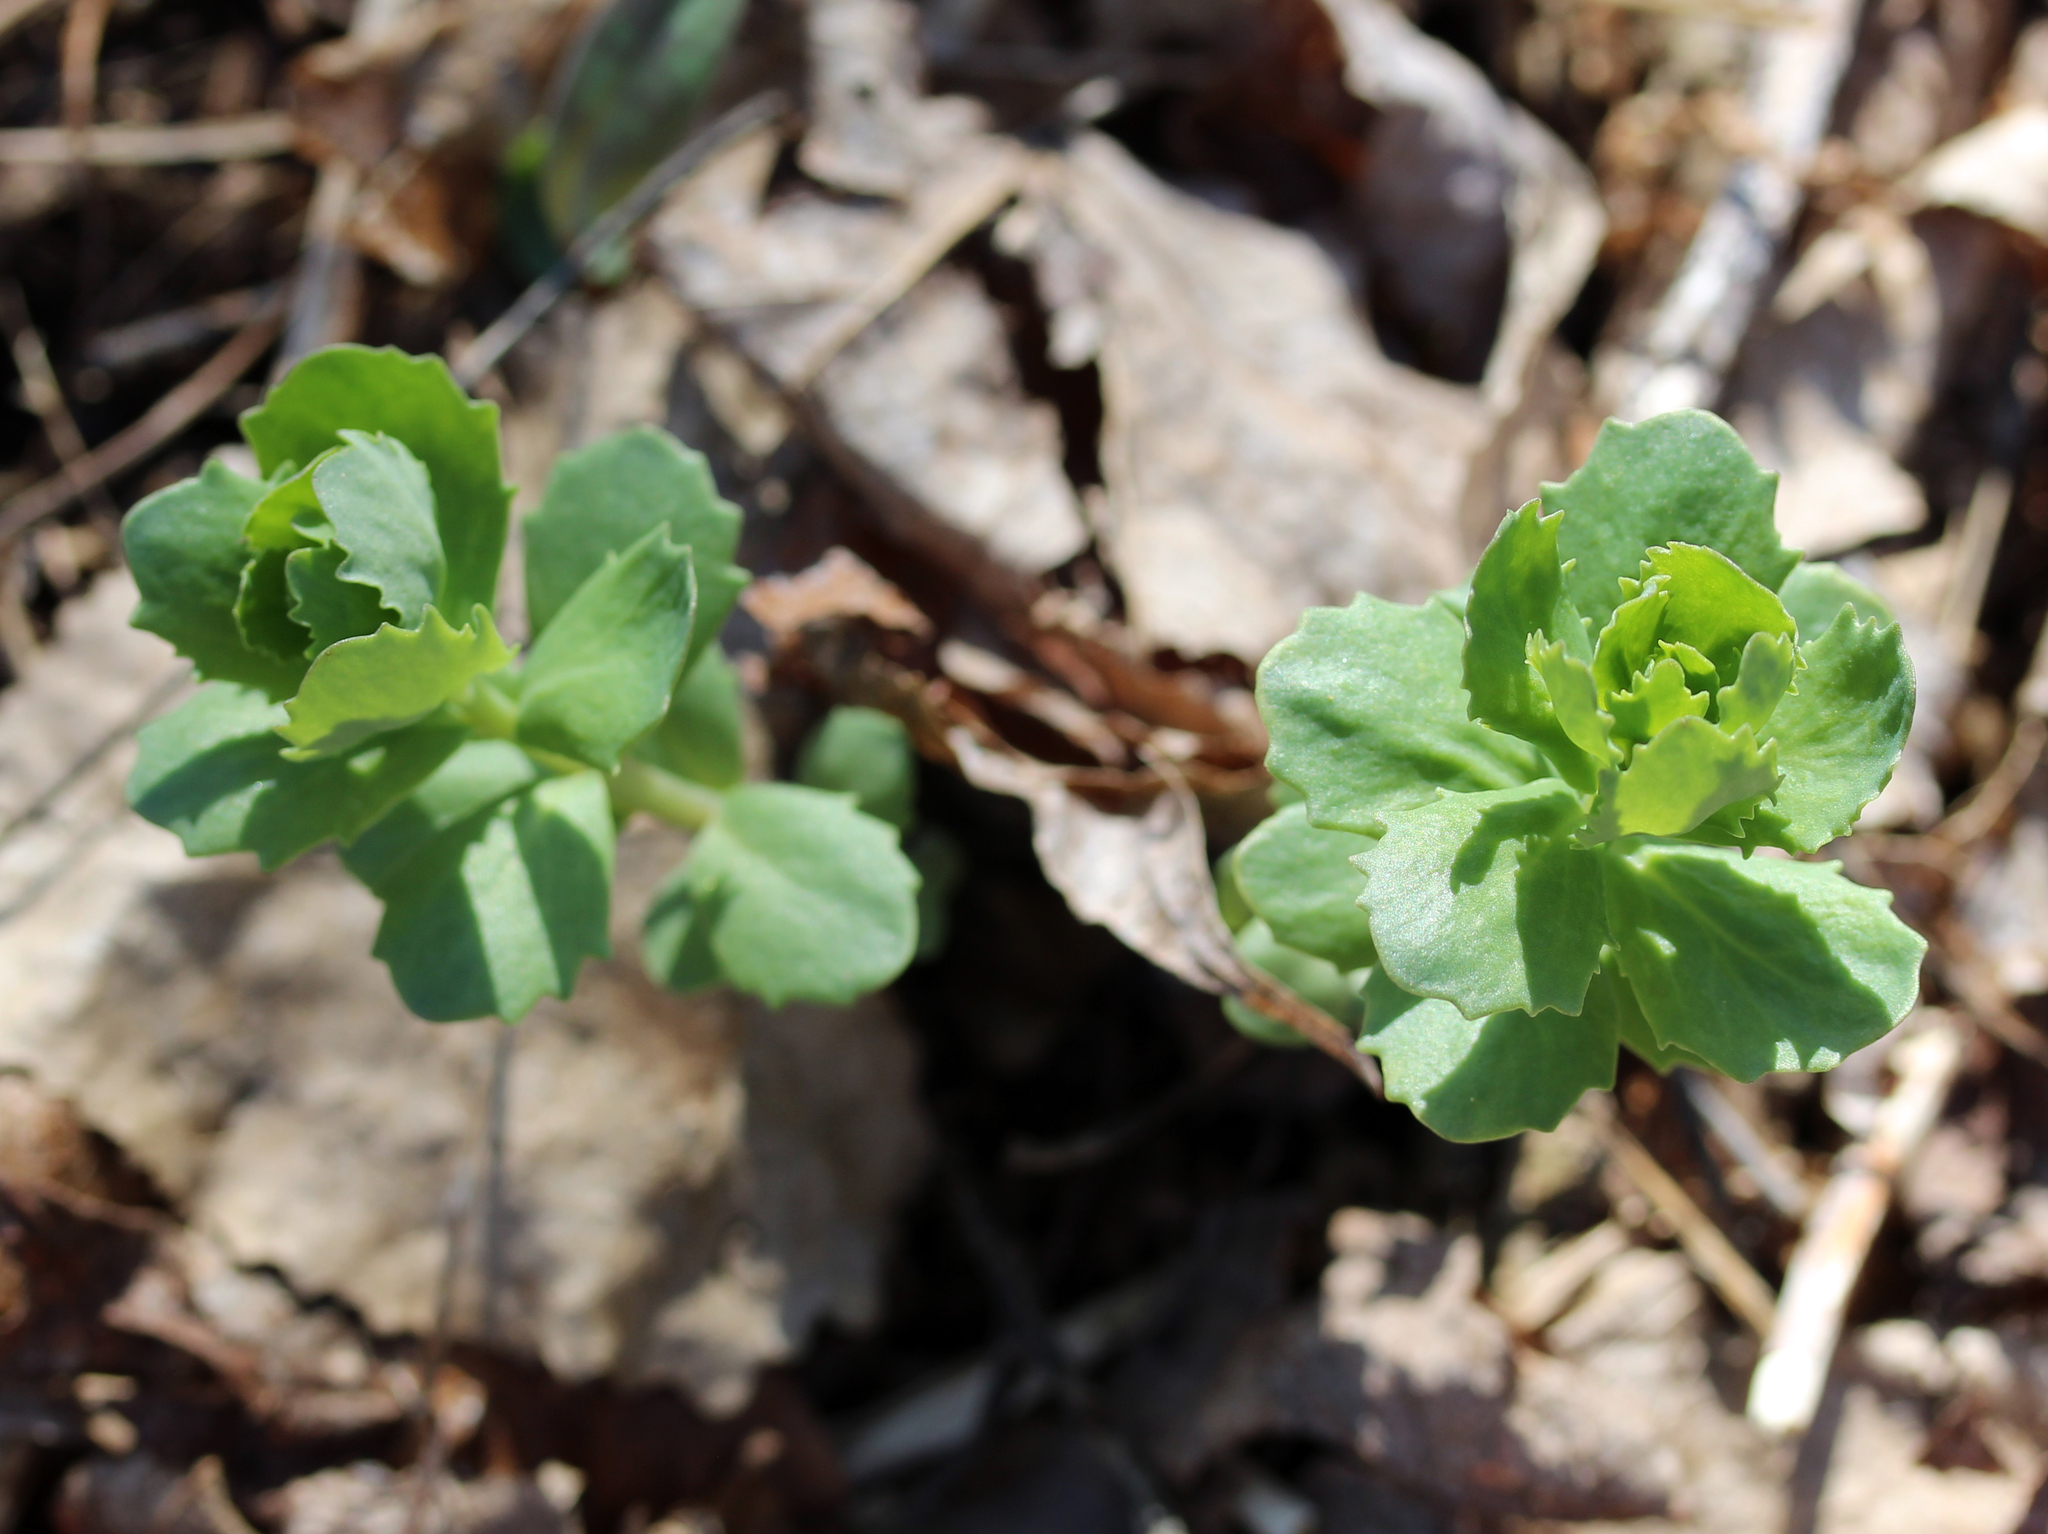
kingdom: Plantae
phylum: Tracheophyta
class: Magnoliopsida
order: Saxifragales
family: Crassulaceae
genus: Hylotelephium
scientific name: Hylotelephium telephium
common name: Live-forever
